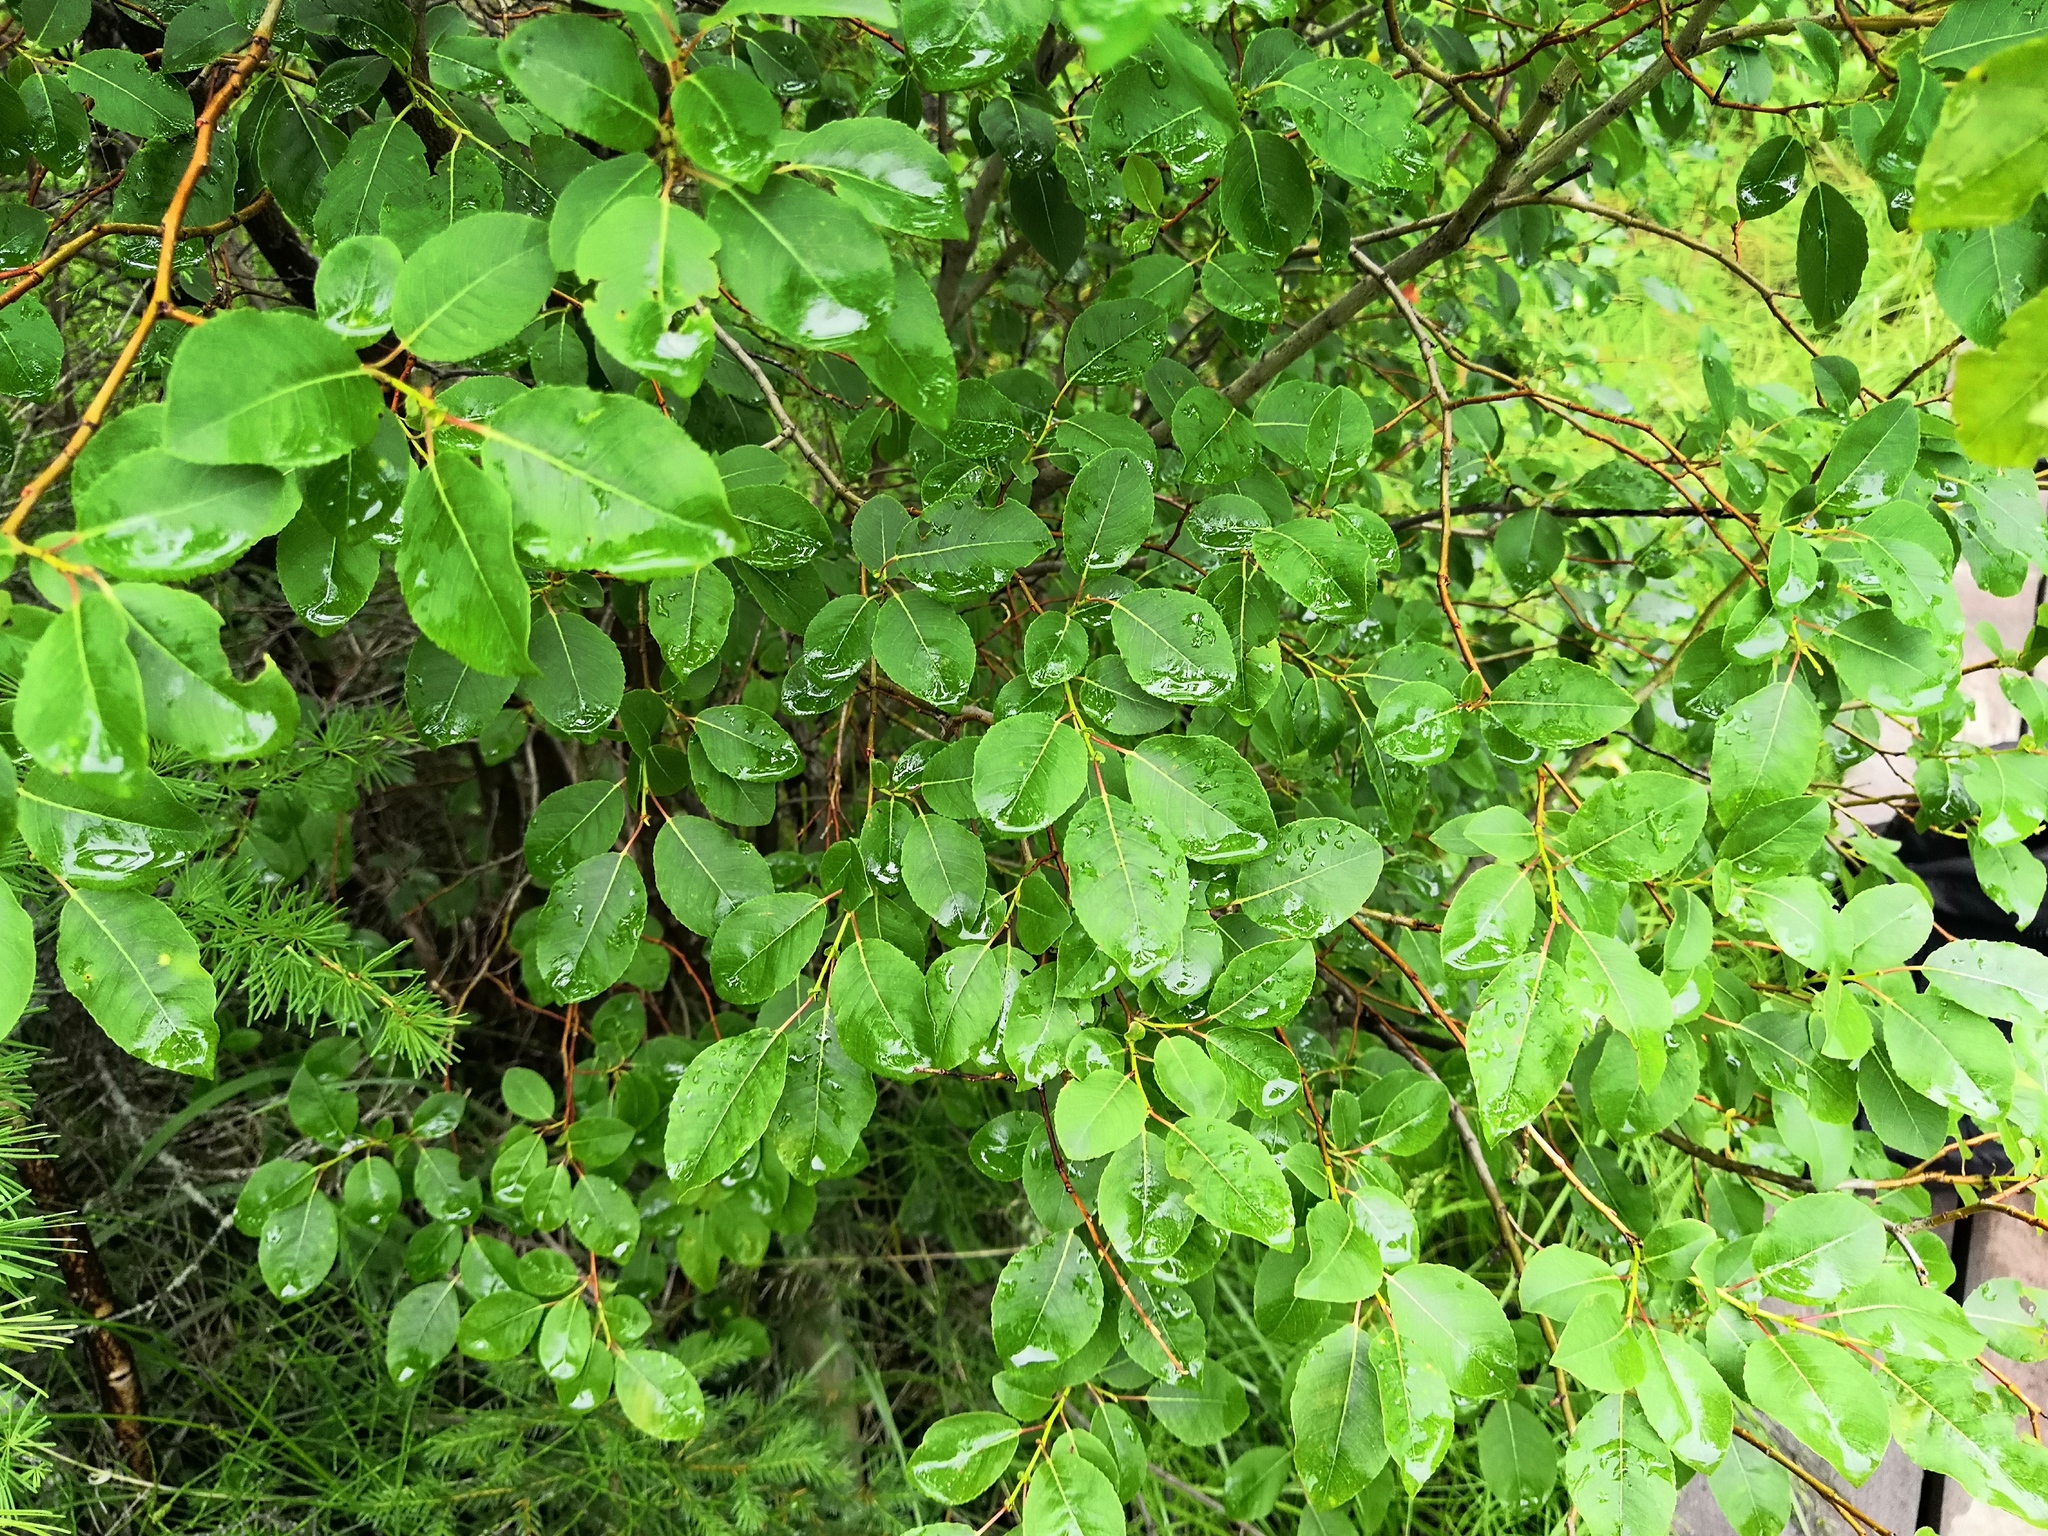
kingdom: Plantae
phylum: Tracheophyta
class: Magnoliopsida
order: Malpighiales
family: Salicaceae
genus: Salix
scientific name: Salix pyrolifolia
